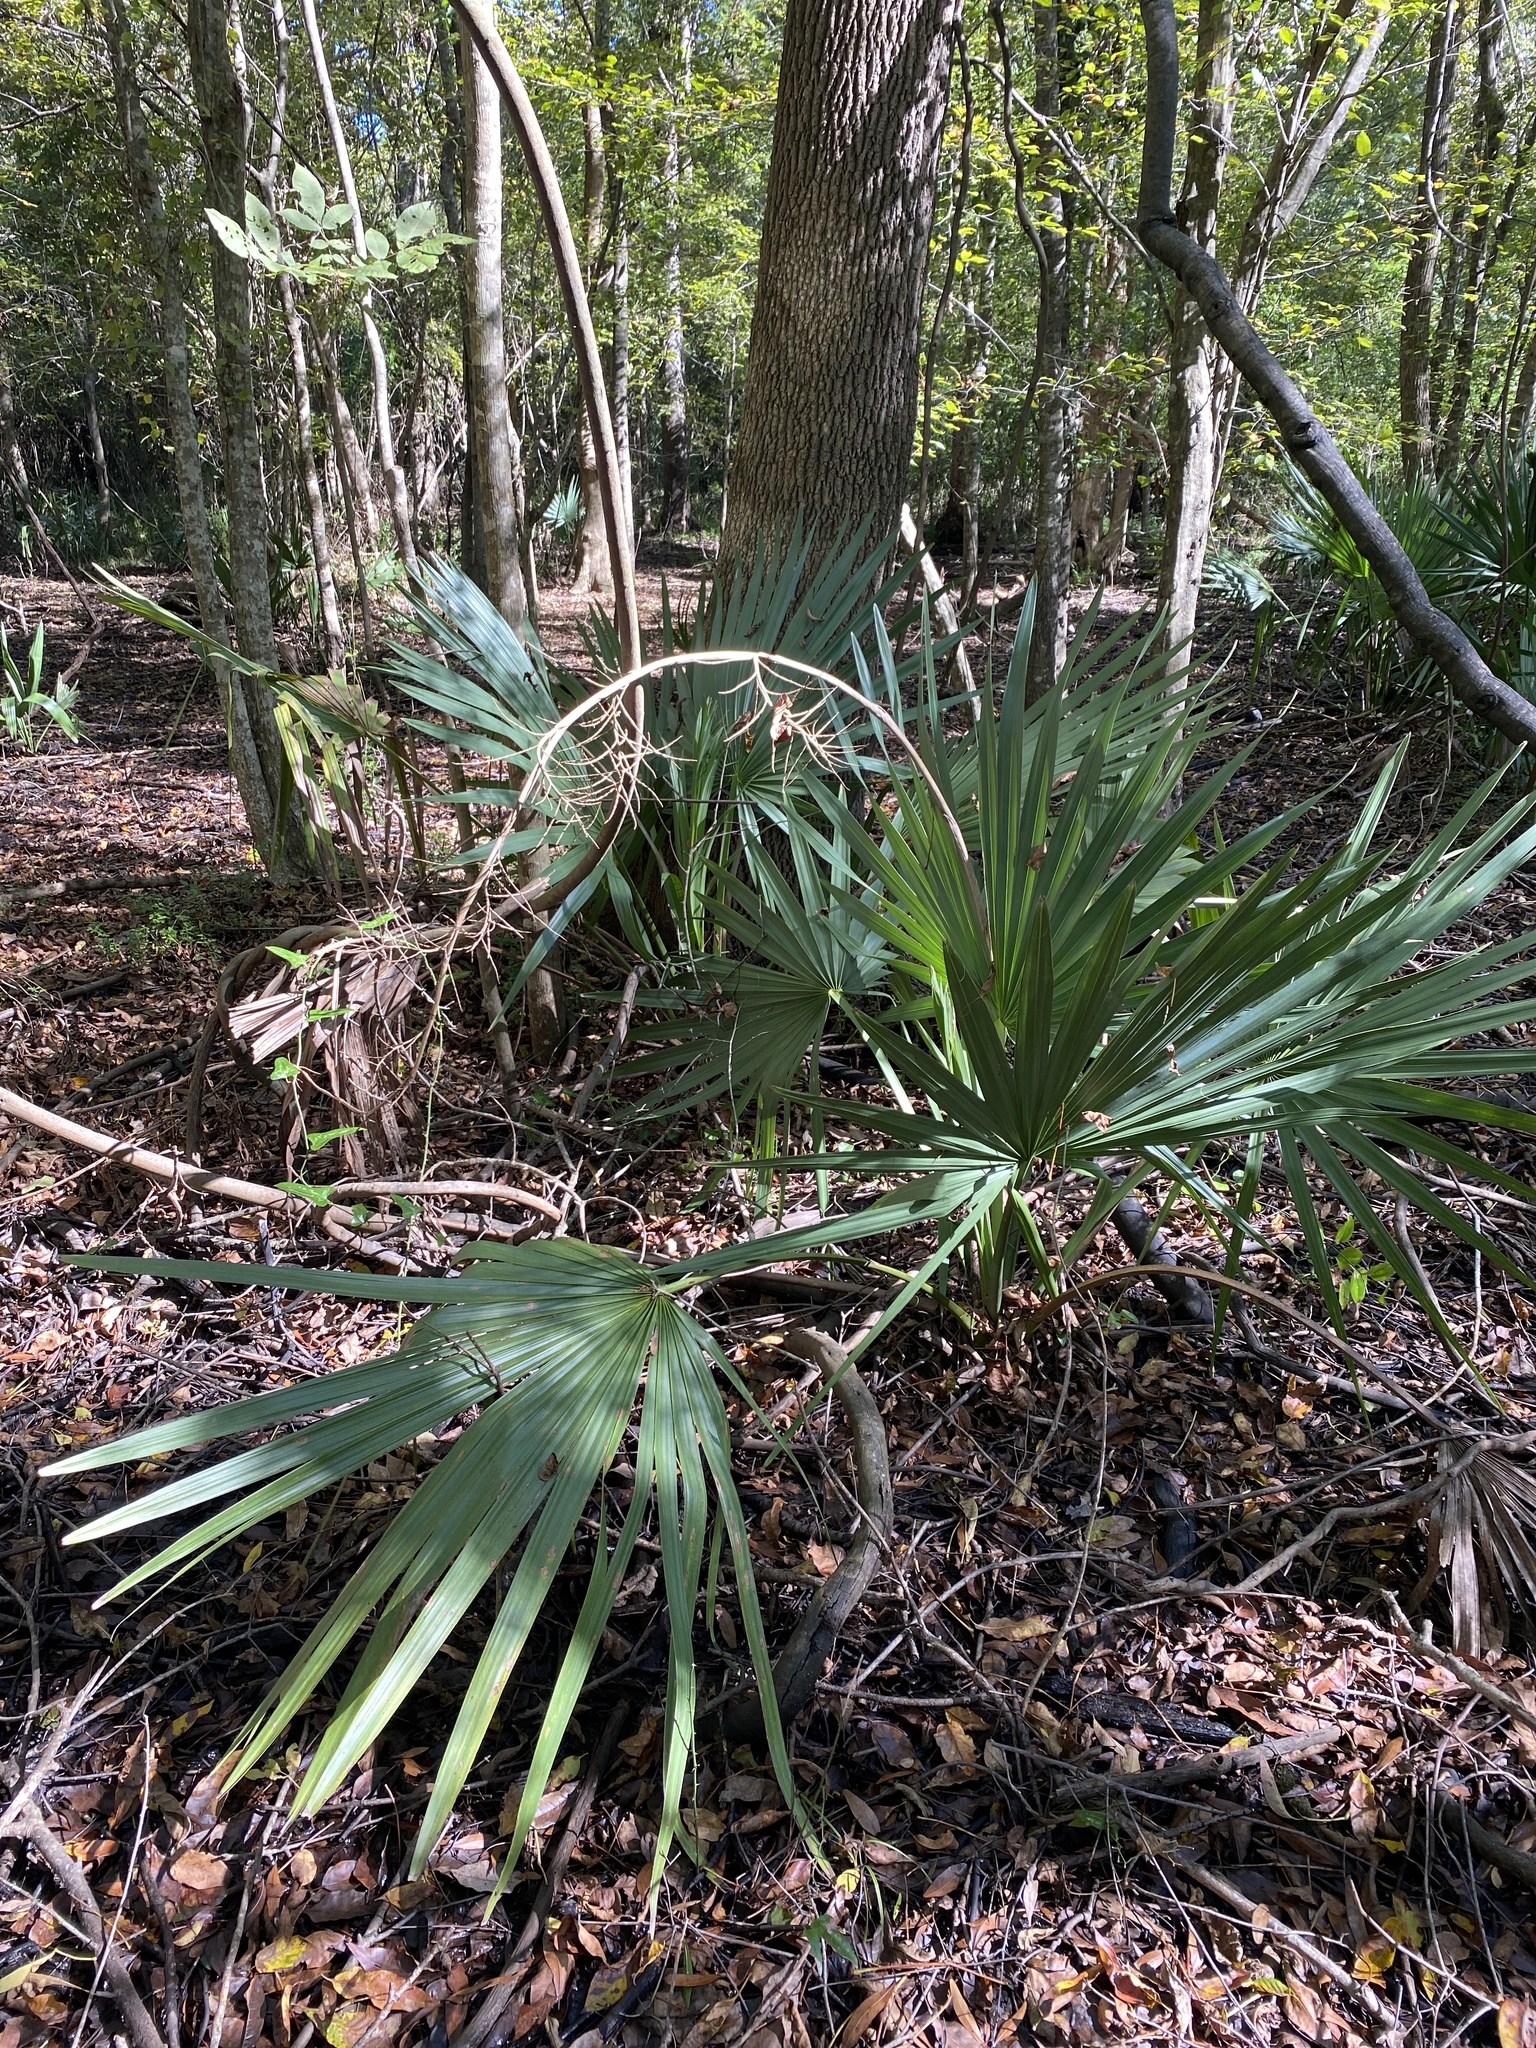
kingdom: Plantae
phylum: Tracheophyta
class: Liliopsida
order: Arecales
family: Arecaceae
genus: Sabal
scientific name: Sabal minor
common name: Dwarf palmetto
